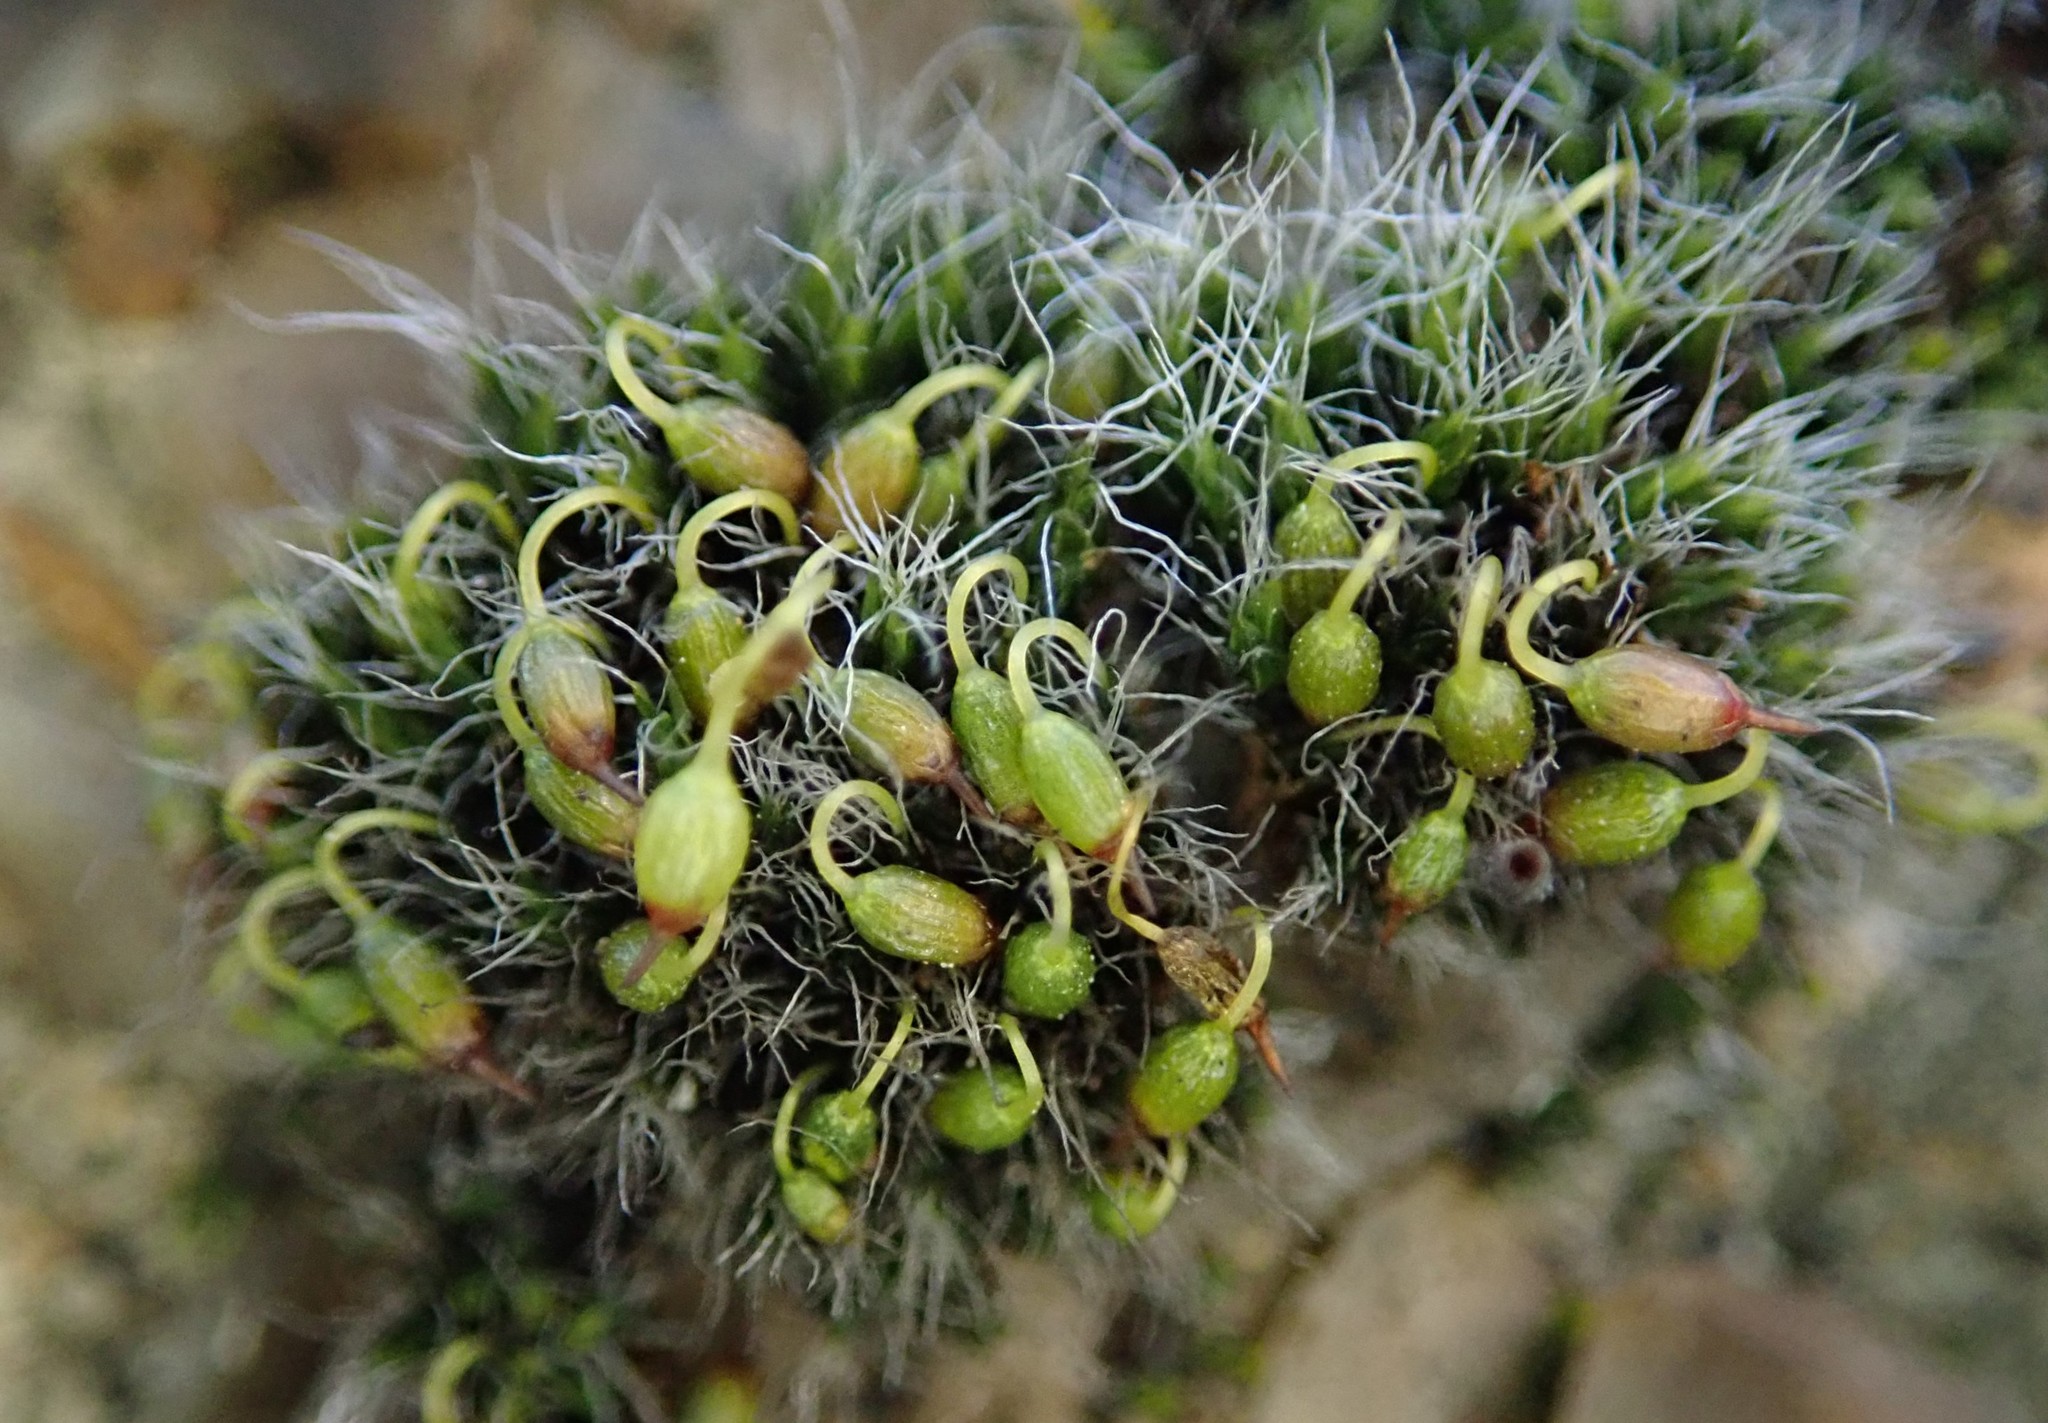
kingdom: Plantae
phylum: Bryophyta
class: Bryopsida
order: Grimmiales
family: Grimmiaceae
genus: Grimmia
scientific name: Grimmia pulvinata
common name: Grey-cushioned grimmia
